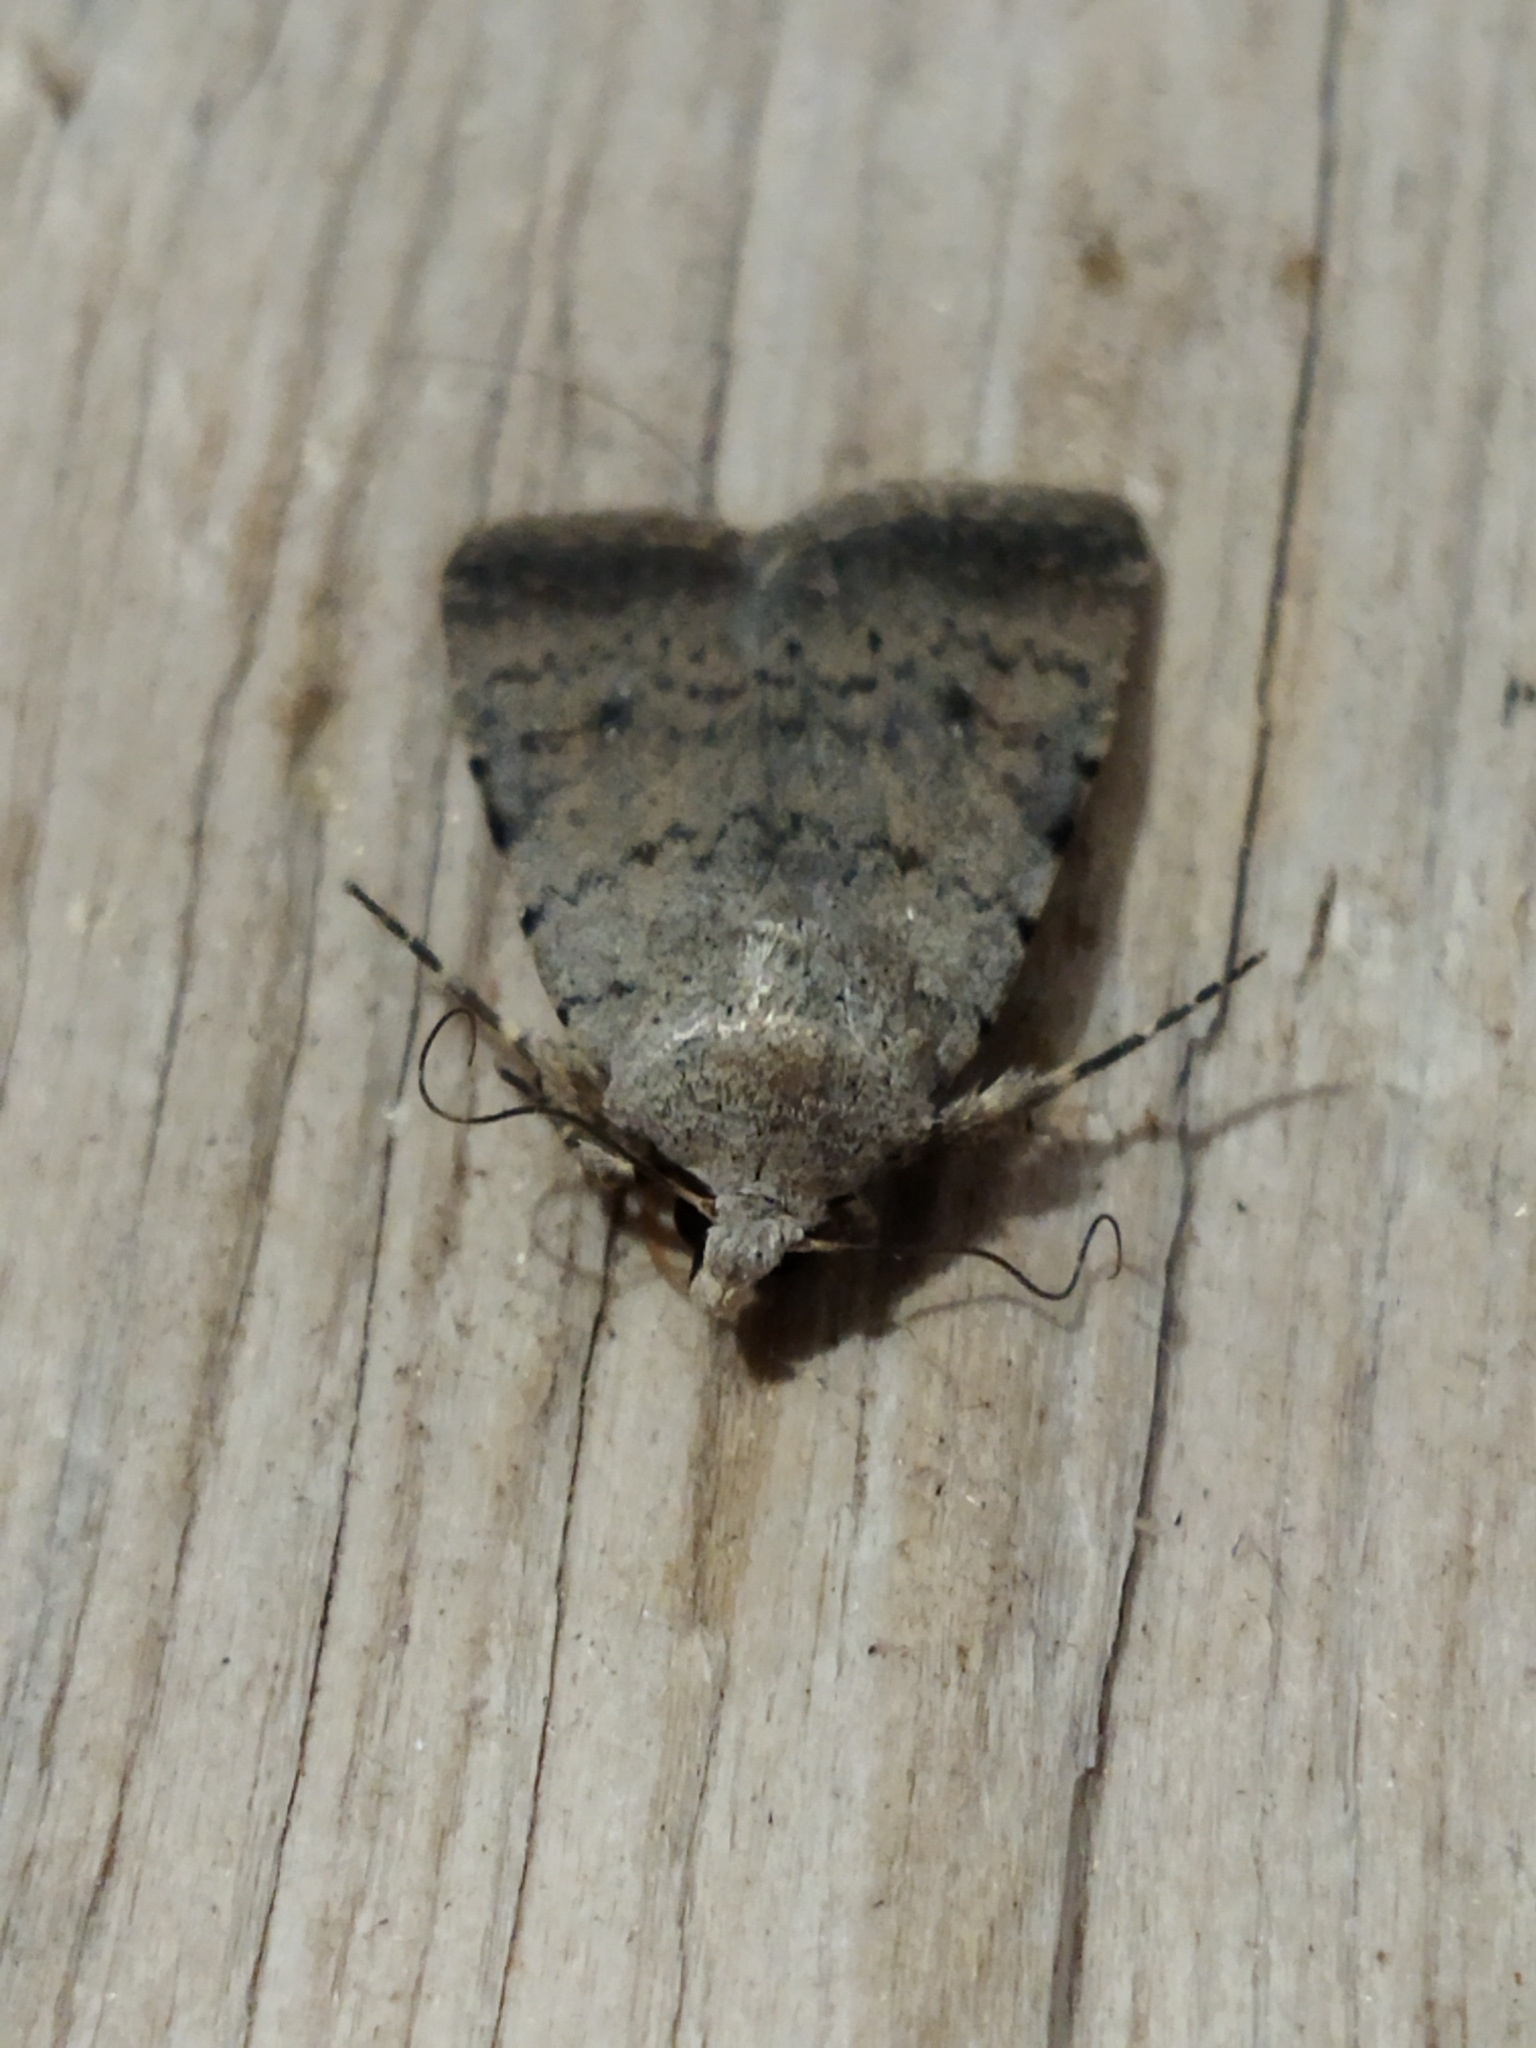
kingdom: Animalia
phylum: Arthropoda
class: Insecta
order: Lepidoptera
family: Noctuidae
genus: Caradrina
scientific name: Caradrina clavipalpis
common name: Pale mottled willow
